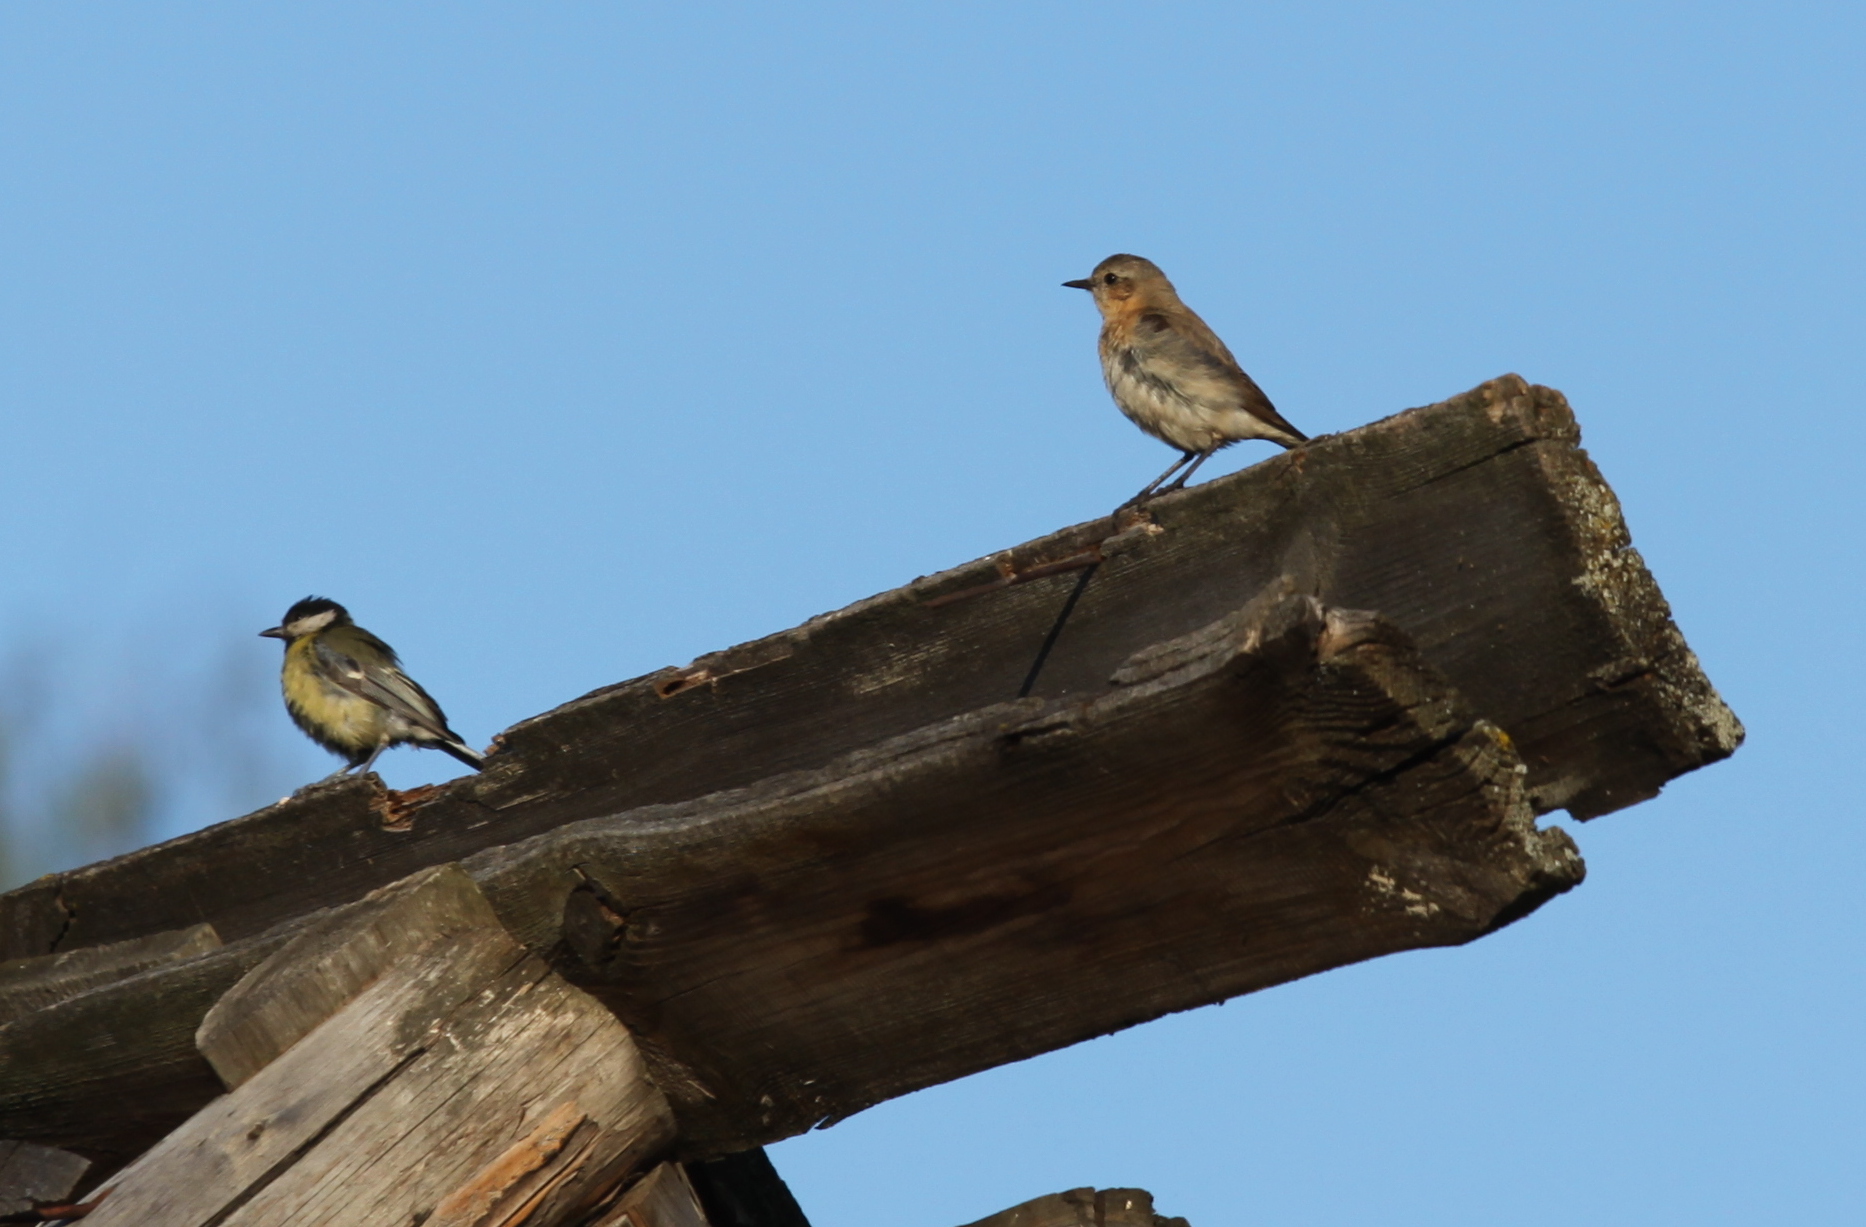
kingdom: Animalia
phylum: Chordata
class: Aves
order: Passeriformes
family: Muscicapidae
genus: Oenanthe
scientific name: Oenanthe oenanthe
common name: Northern wheatear
